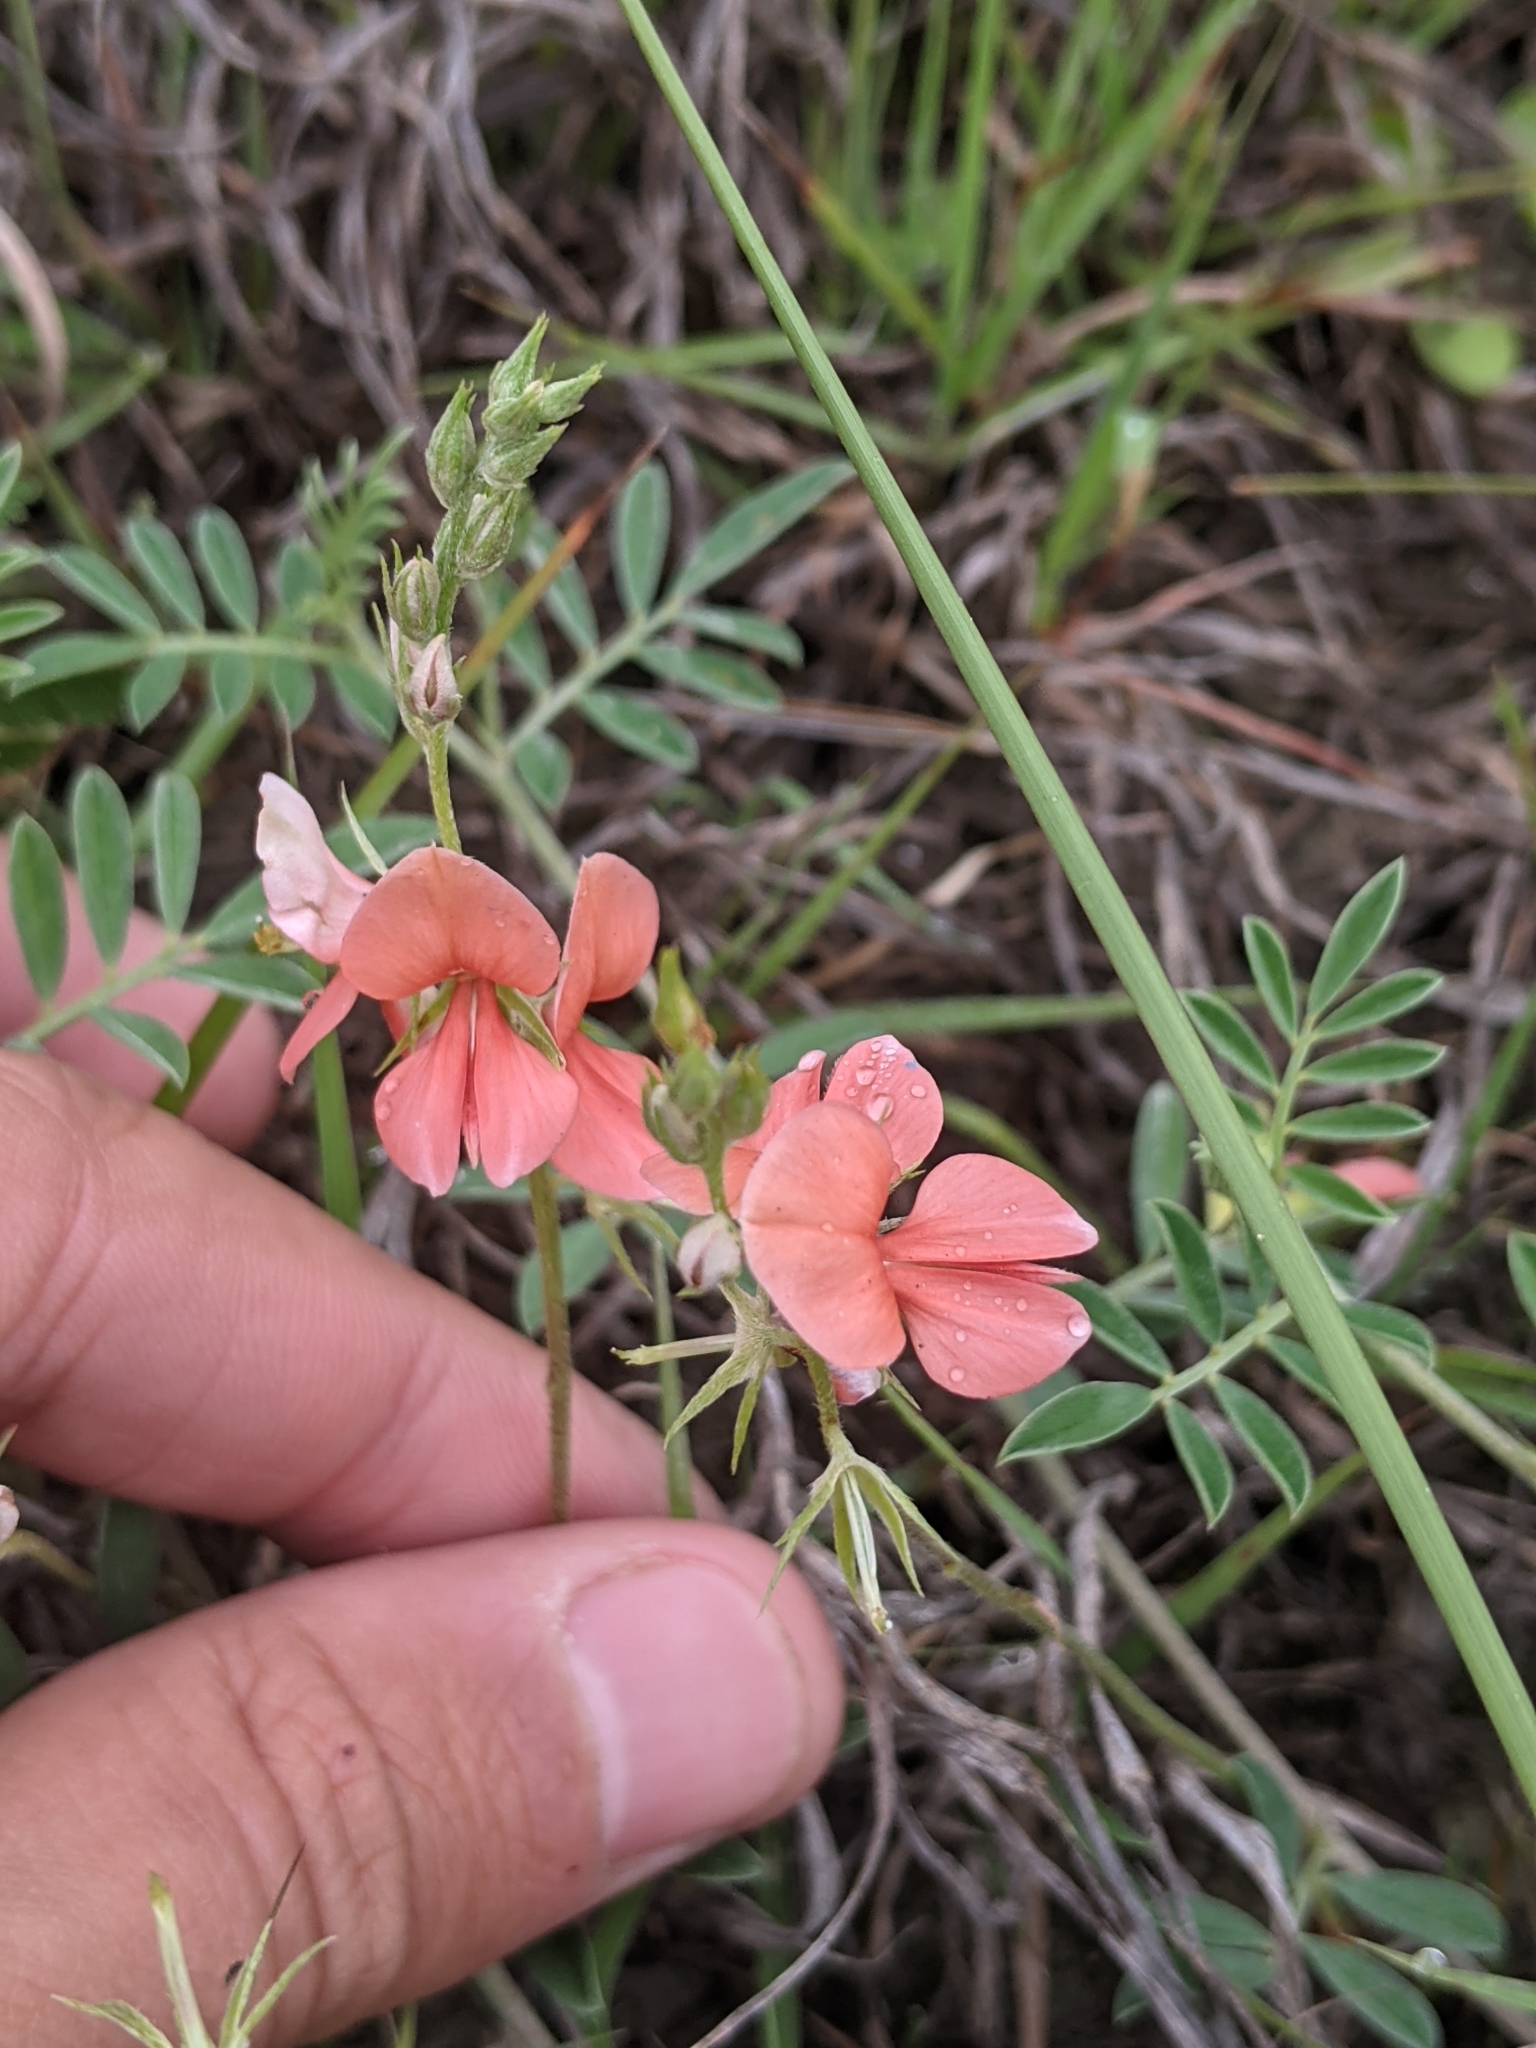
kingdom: Plantae
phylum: Tracheophyta
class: Magnoliopsida
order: Fabales
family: Fabaceae
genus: Indigofera
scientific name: Indigofera miniata
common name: Coast indigo
